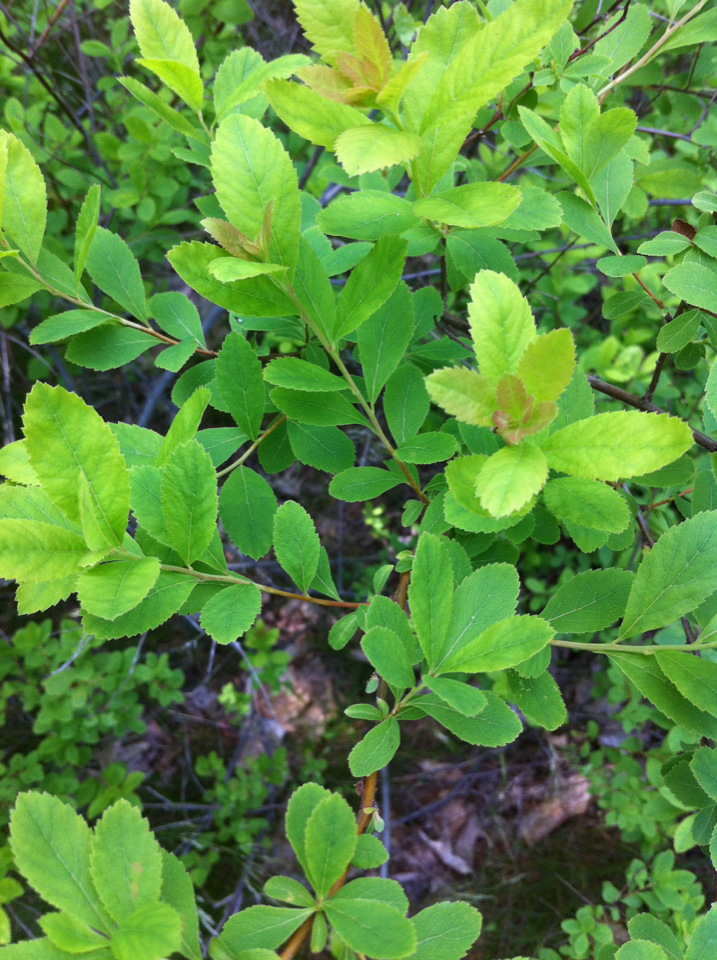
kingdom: Plantae
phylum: Tracheophyta
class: Magnoliopsida
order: Rosales
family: Rosaceae
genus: Spiraea
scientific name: Spiraea alba
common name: Pale bridewort
